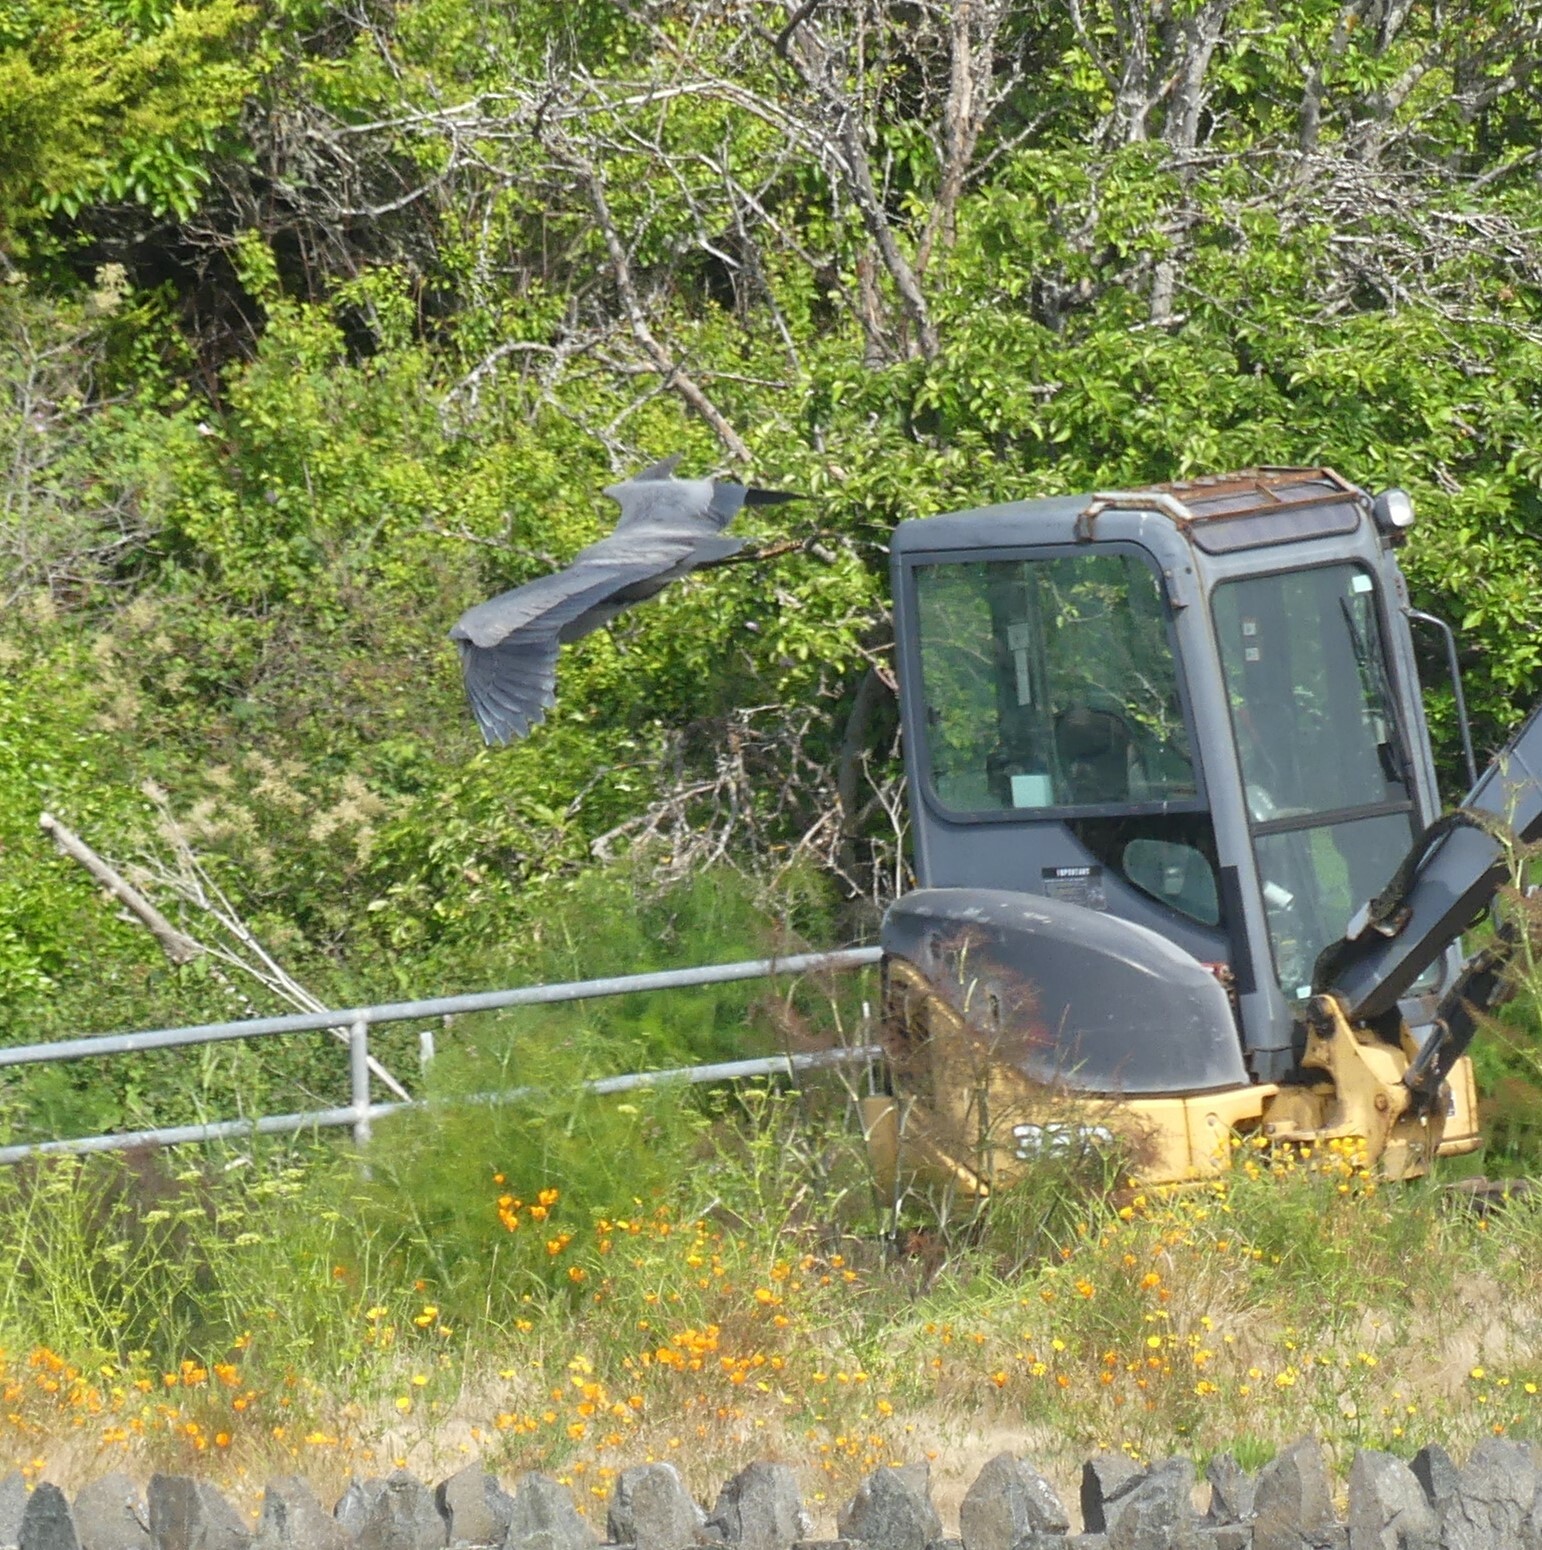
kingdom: Animalia
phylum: Chordata
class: Aves
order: Pelecaniformes
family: Ardeidae
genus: Ardea
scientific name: Ardea herodias
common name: Great blue heron
